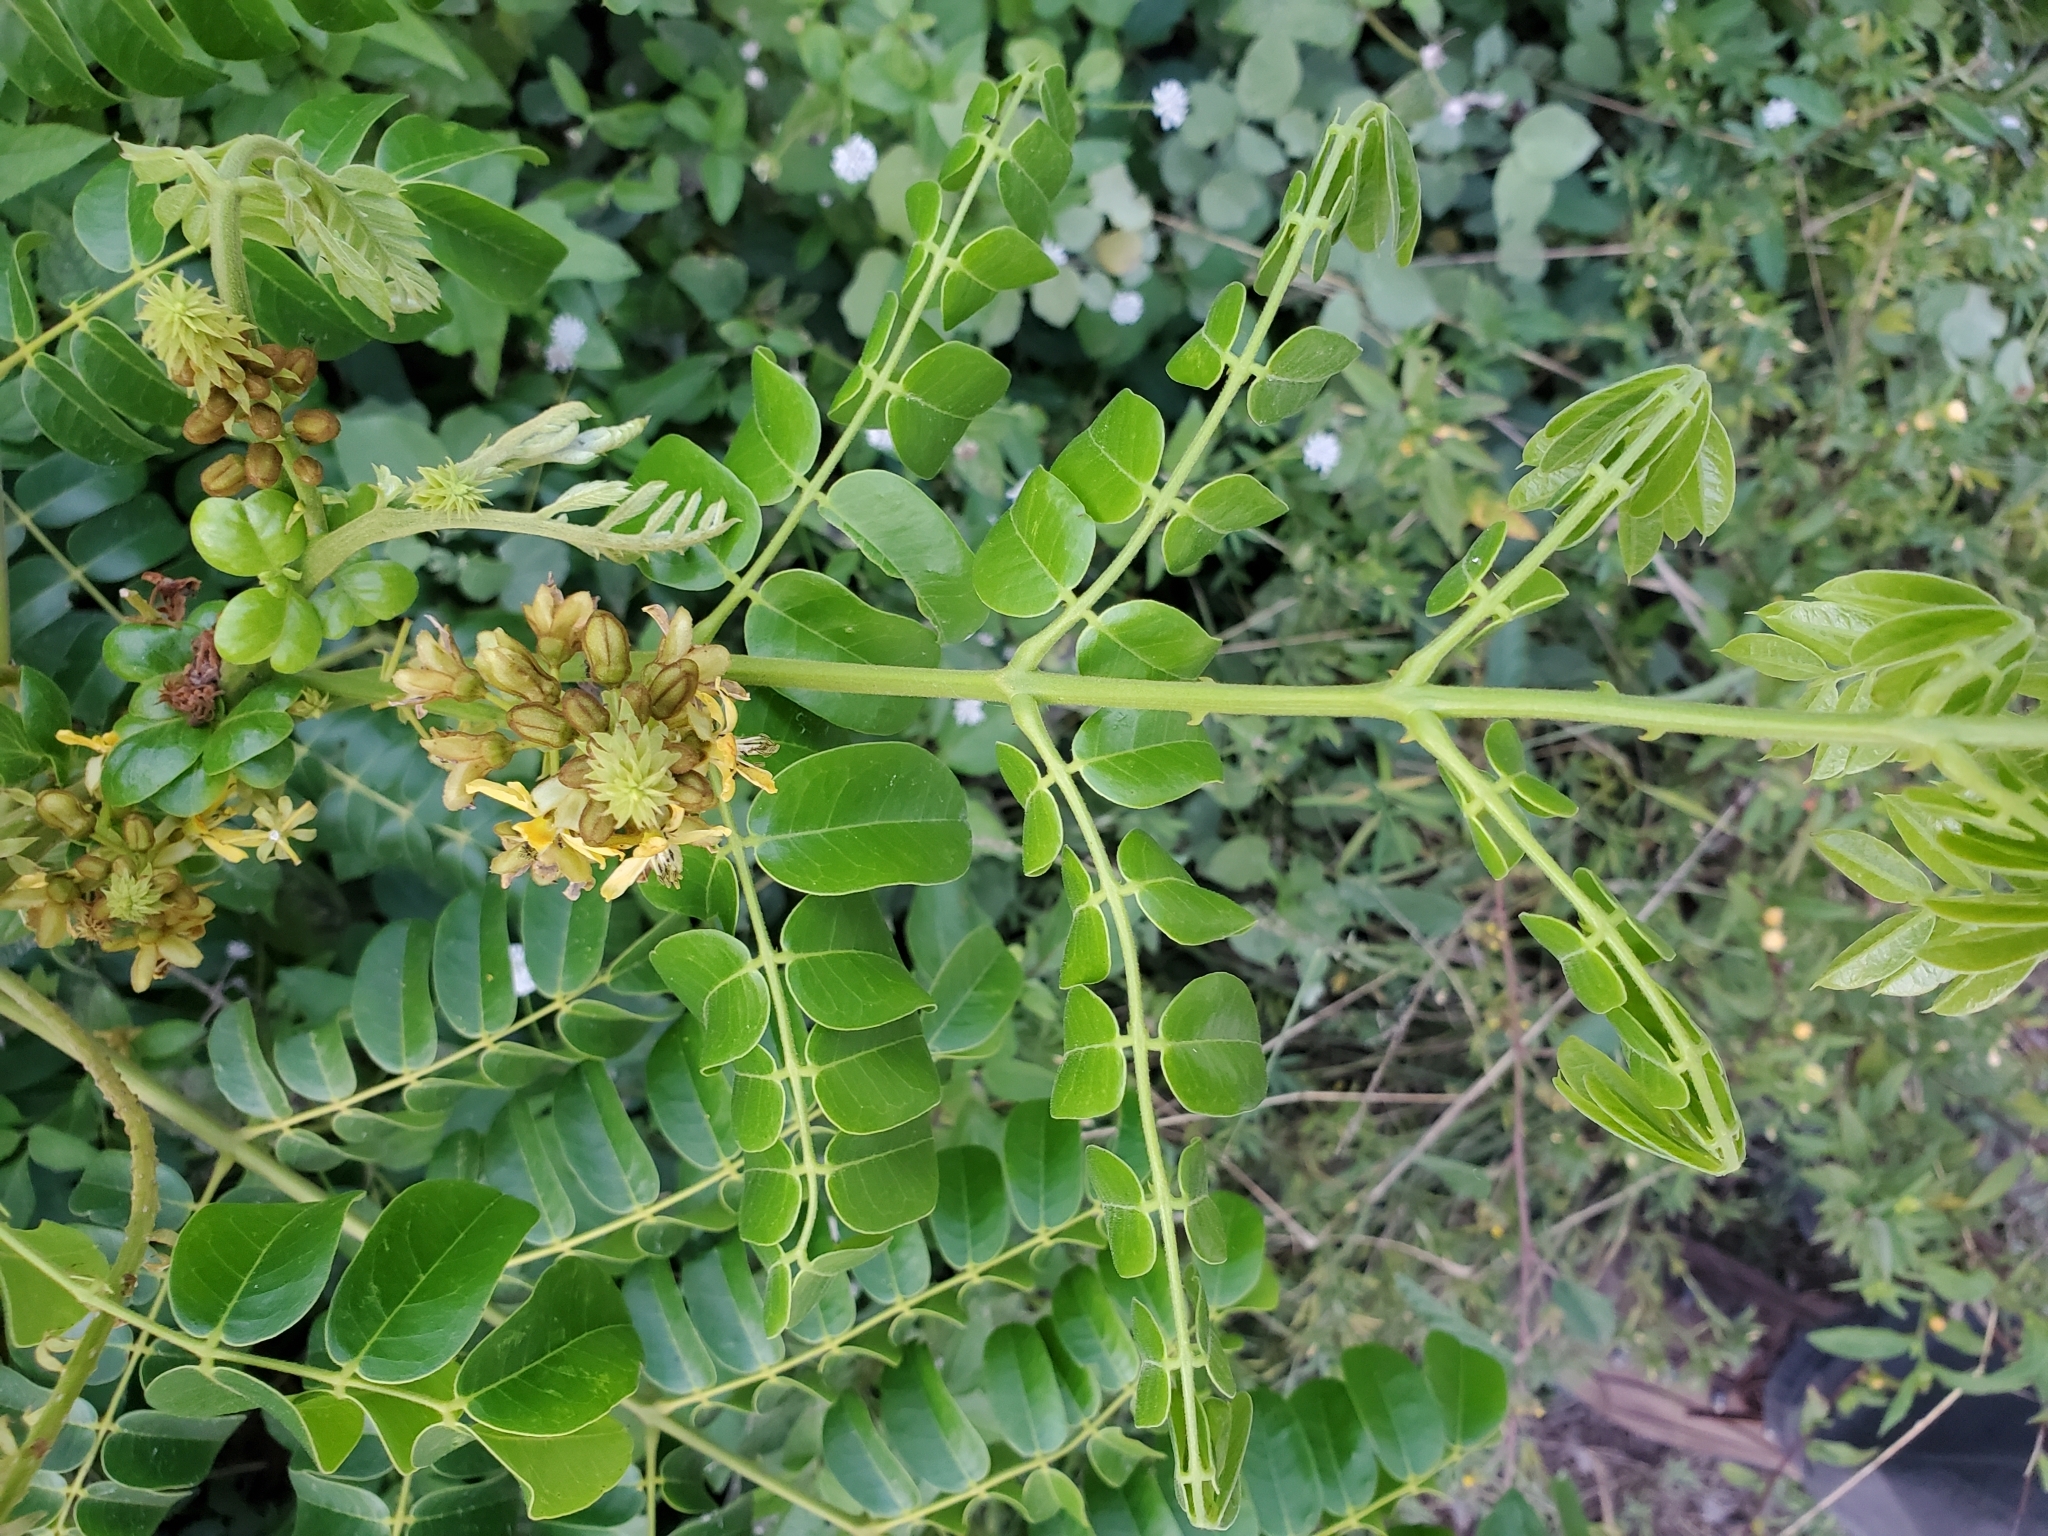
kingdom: Plantae
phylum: Tracheophyta
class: Magnoliopsida
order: Fabales
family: Fabaceae
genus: Guilandina
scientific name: Guilandina bonduc
